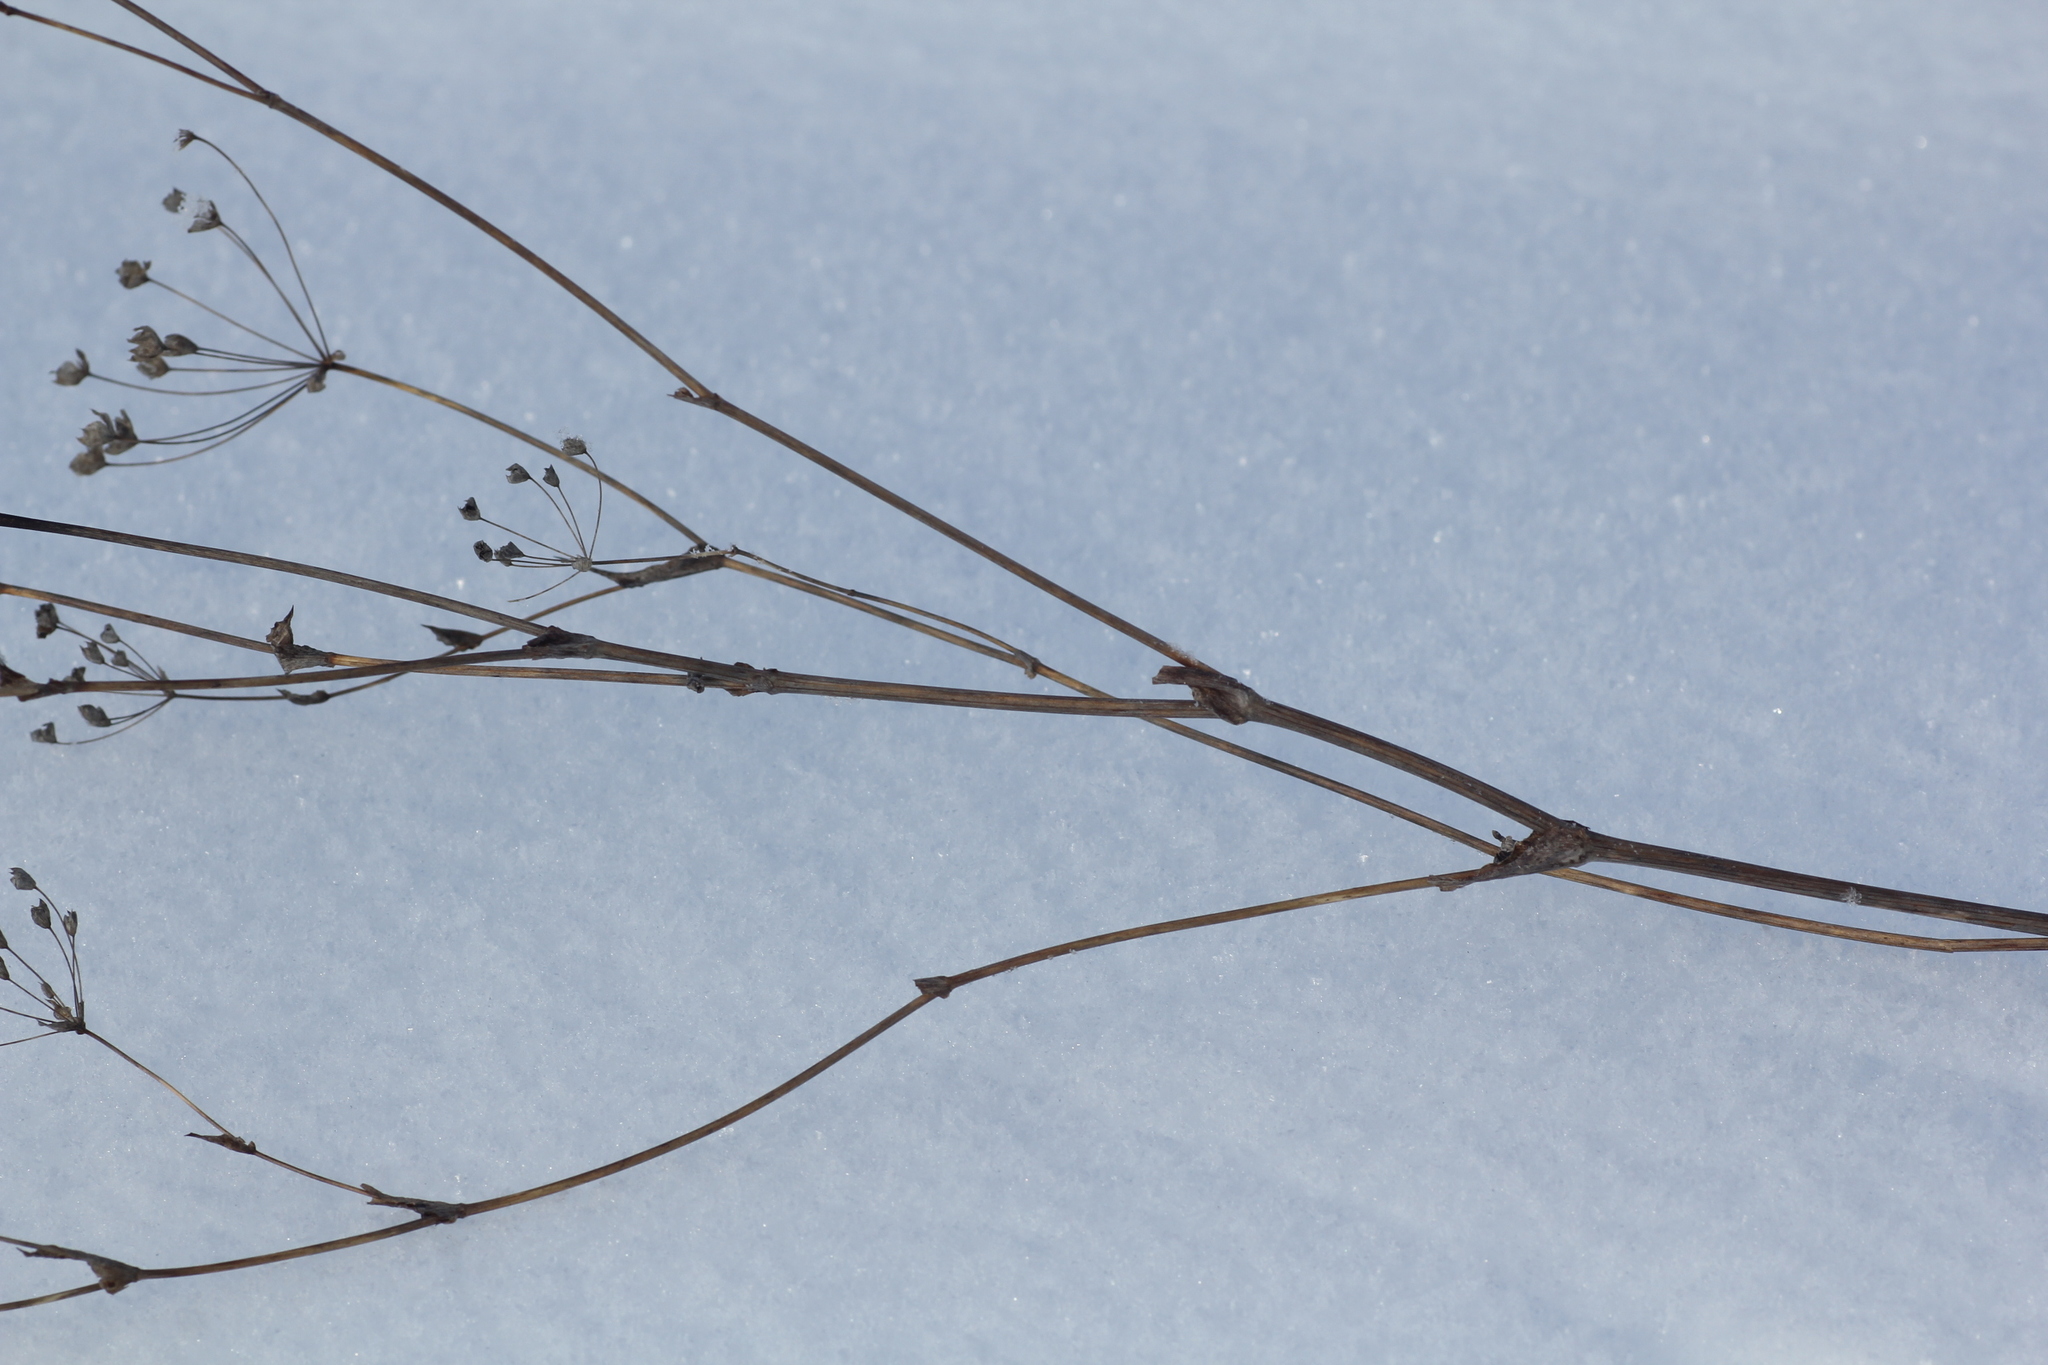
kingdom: Plantae
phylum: Tracheophyta
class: Magnoliopsida
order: Apiales
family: Apiaceae
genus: Bupleurum
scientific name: Bupleurum multinerve
